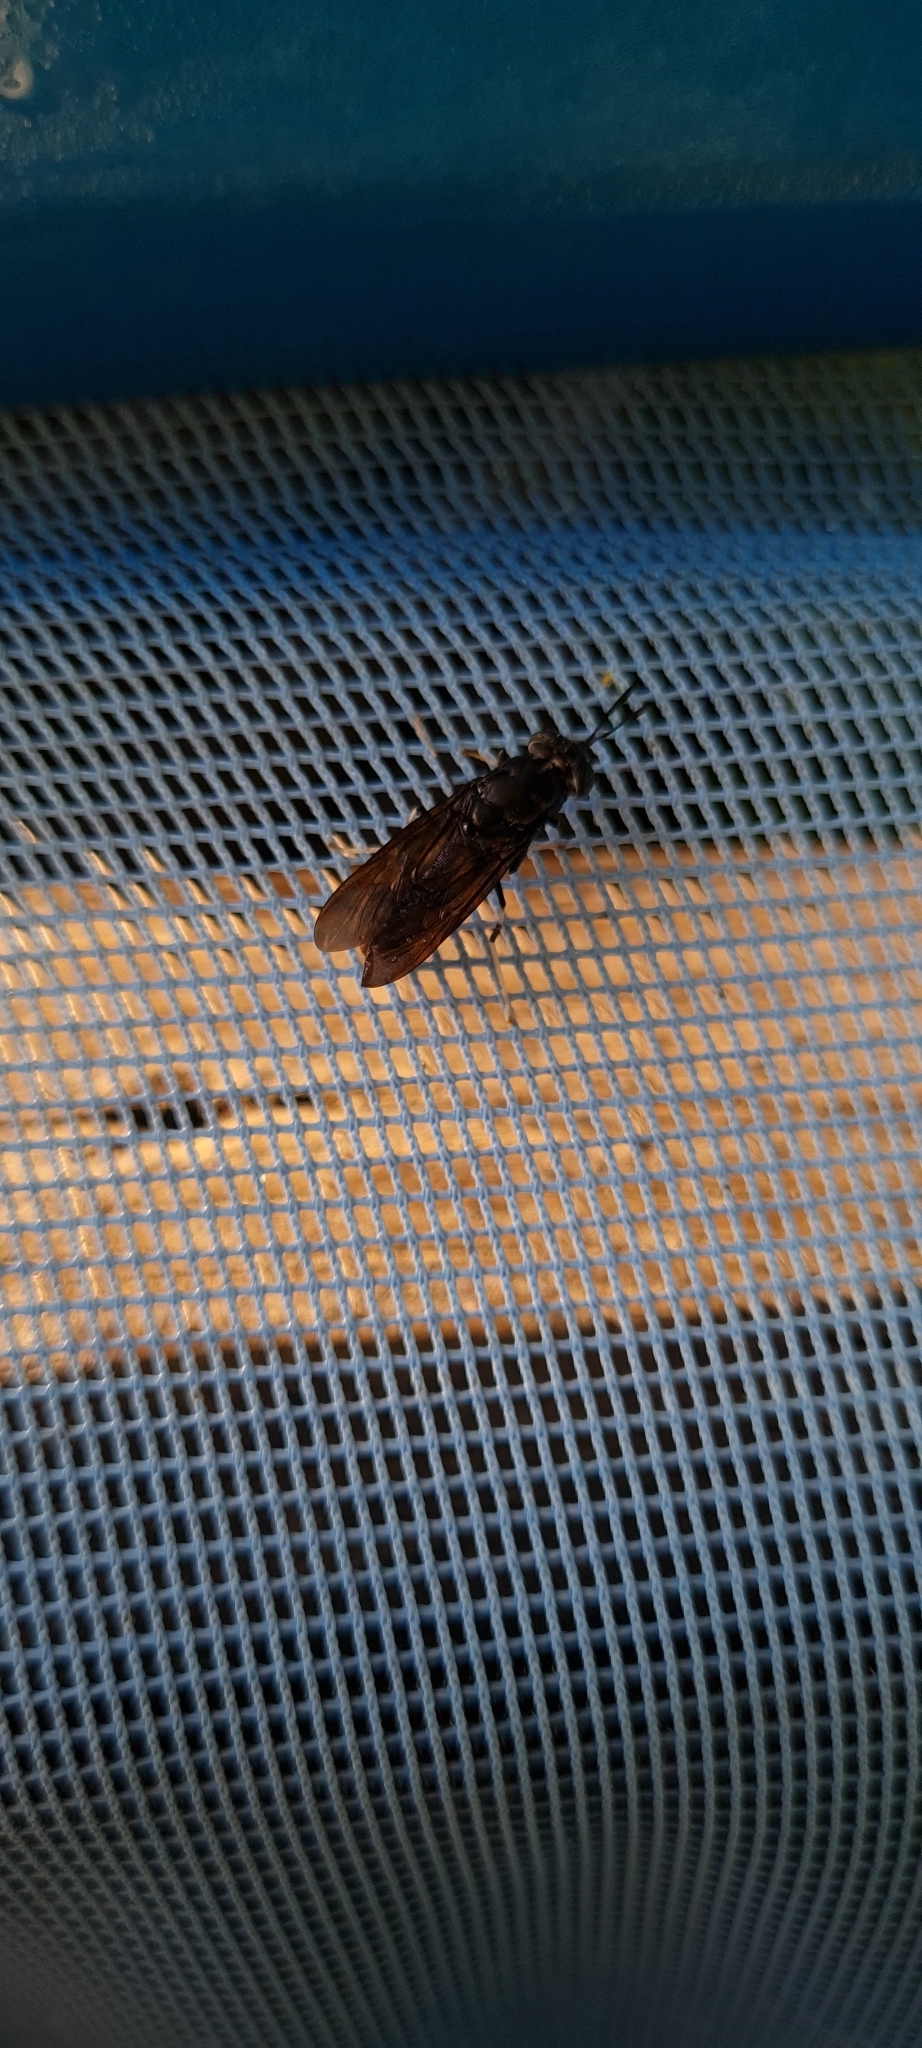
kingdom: Animalia
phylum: Arthropoda
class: Insecta
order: Diptera
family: Stratiomyidae
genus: Hermetia
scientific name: Hermetia illucens
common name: Black soldier fly
